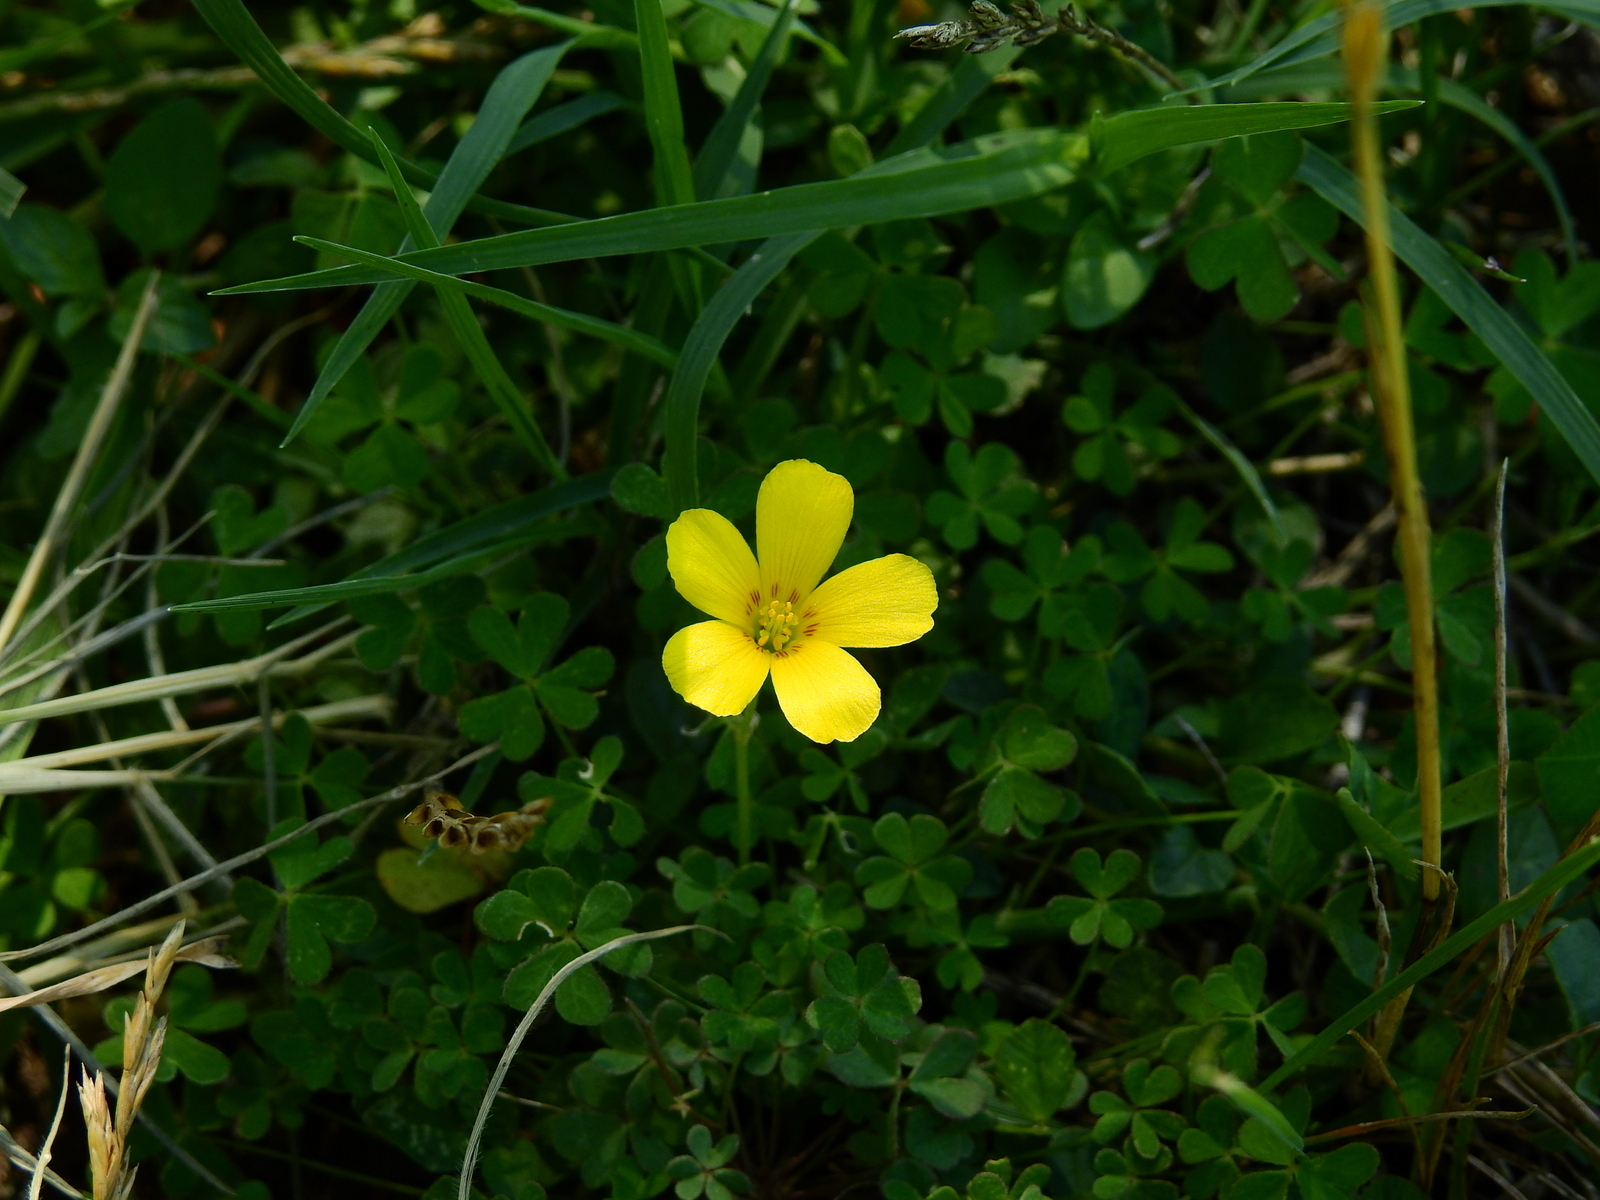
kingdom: Plantae
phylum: Tracheophyta
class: Magnoliopsida
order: Oxalidales
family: Oxalidaceae
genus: Oxalis
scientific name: Oxalis conorrhiza
